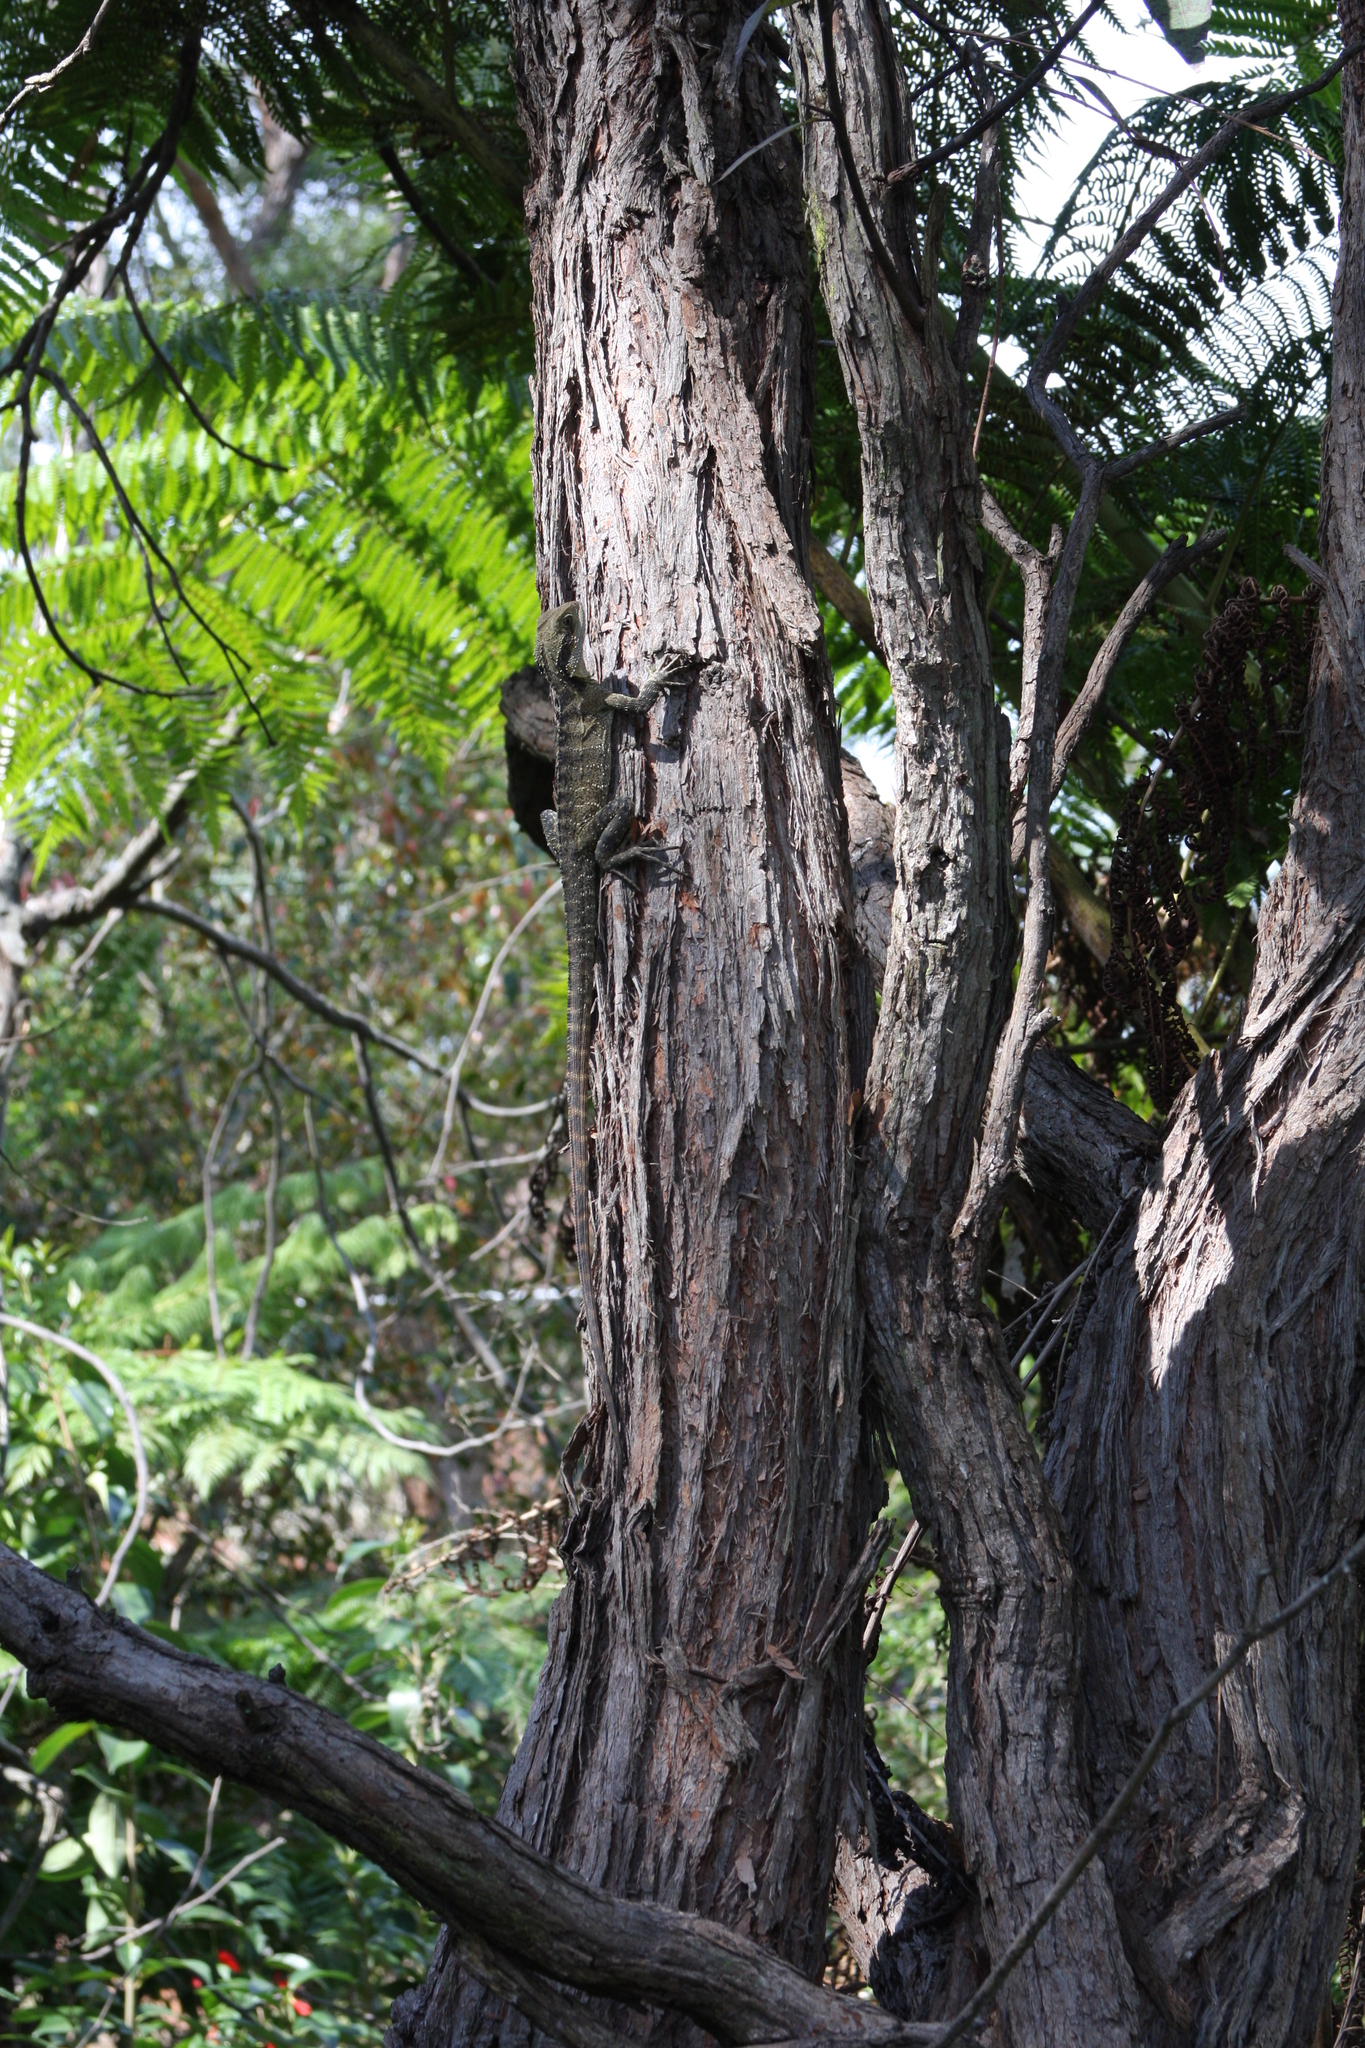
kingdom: Animalia
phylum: Chordata
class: Squamata
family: Agamidae
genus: Intellagama
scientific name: Intellagama lesueurii
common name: Eastern water dragon
